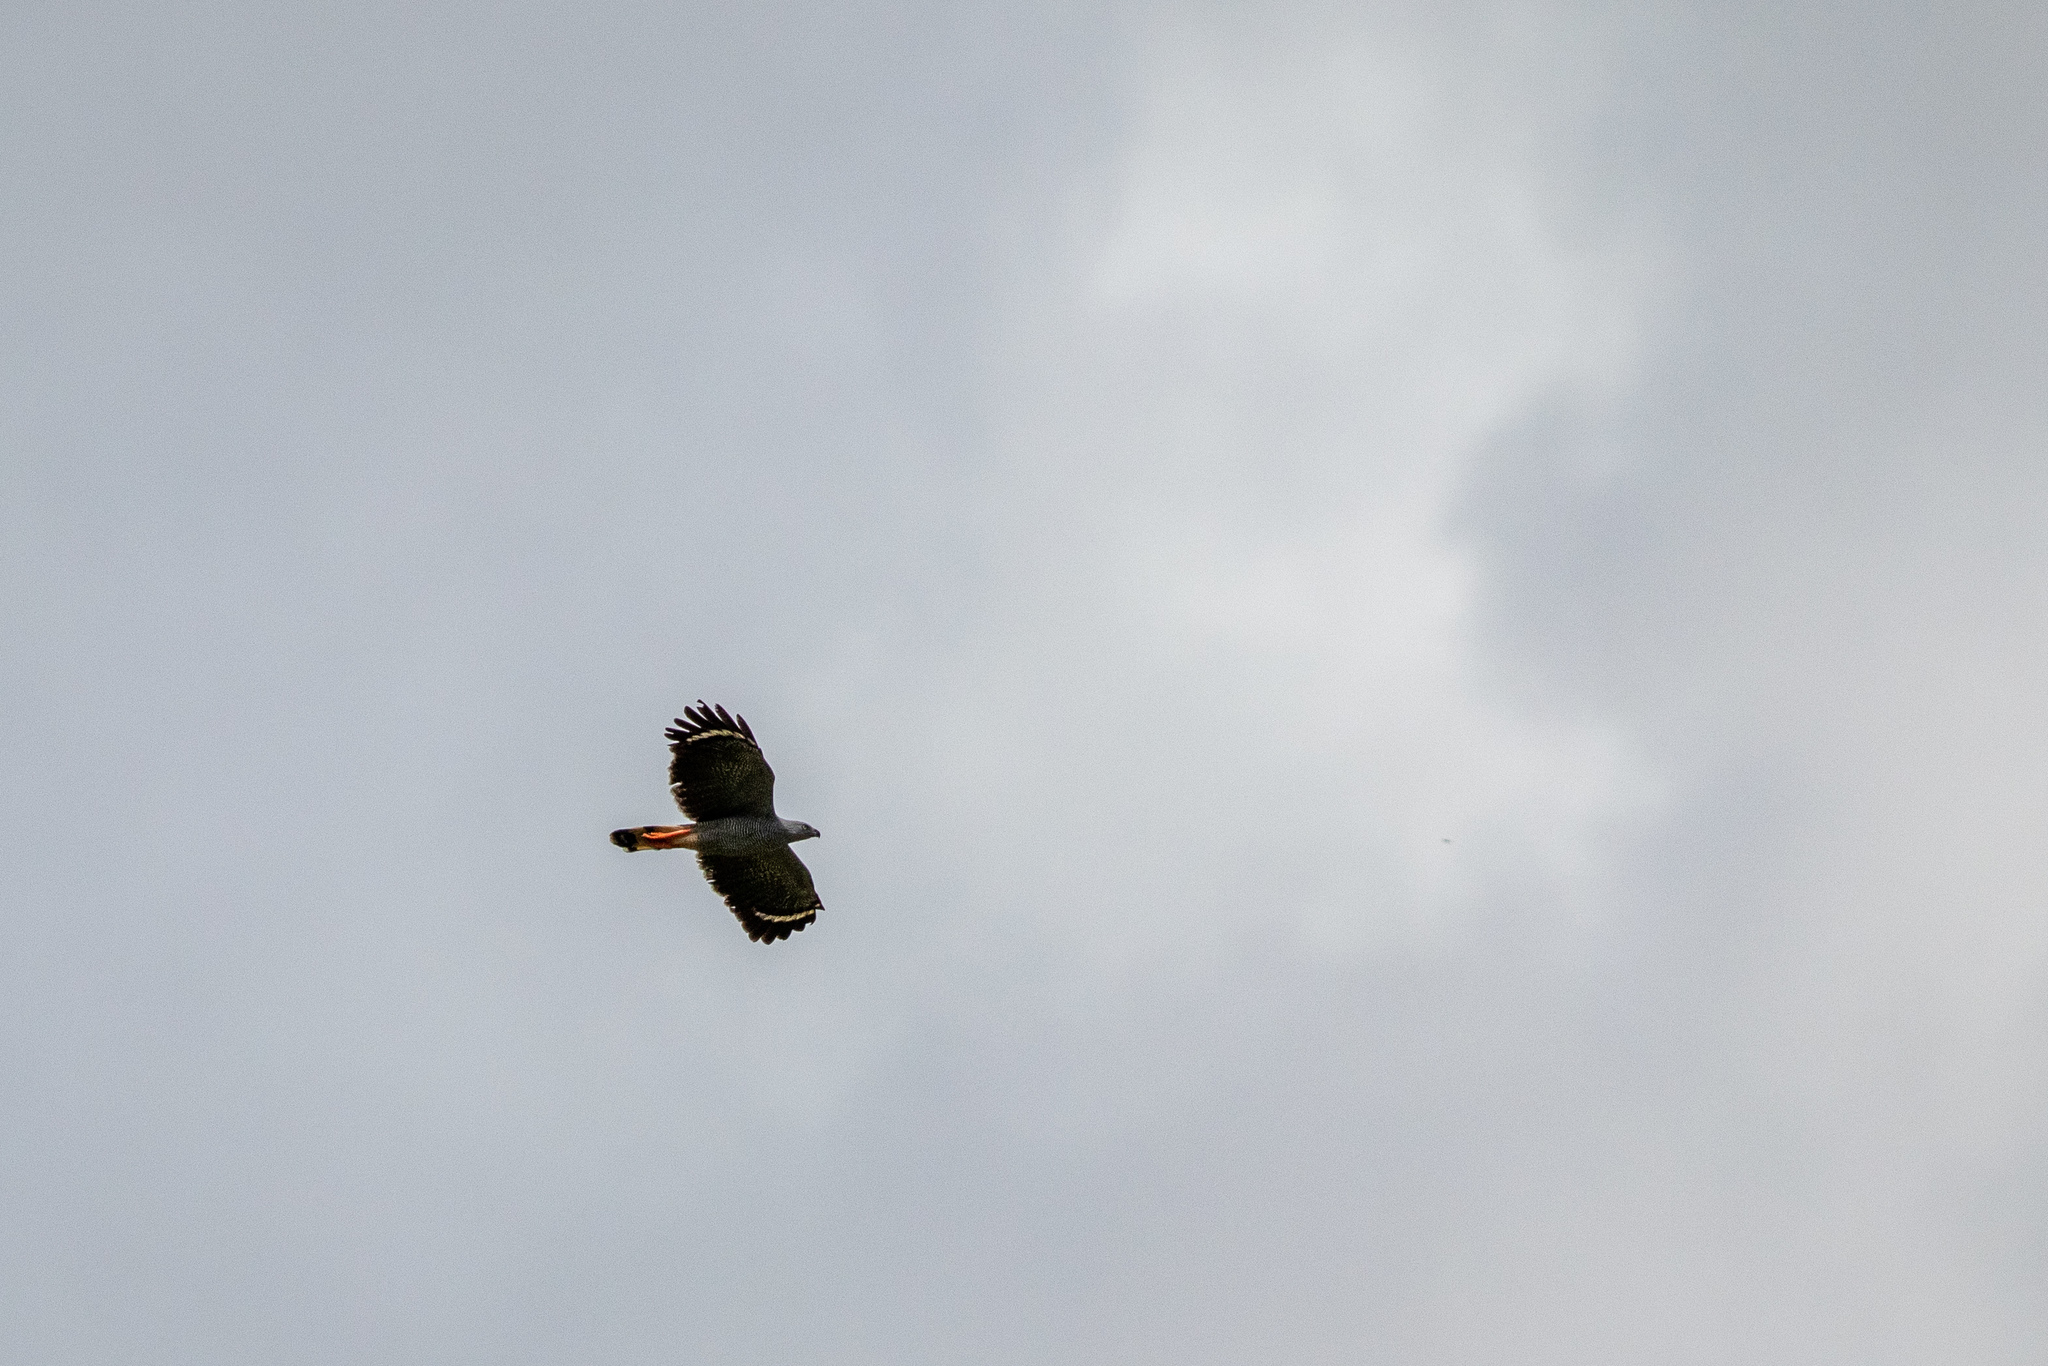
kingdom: Animalia
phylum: Chordata
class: Aves
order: Accipitriformes
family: Accipitridae
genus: Geranospiza
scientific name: Geranospiza caerulescens
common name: Crane hawk
